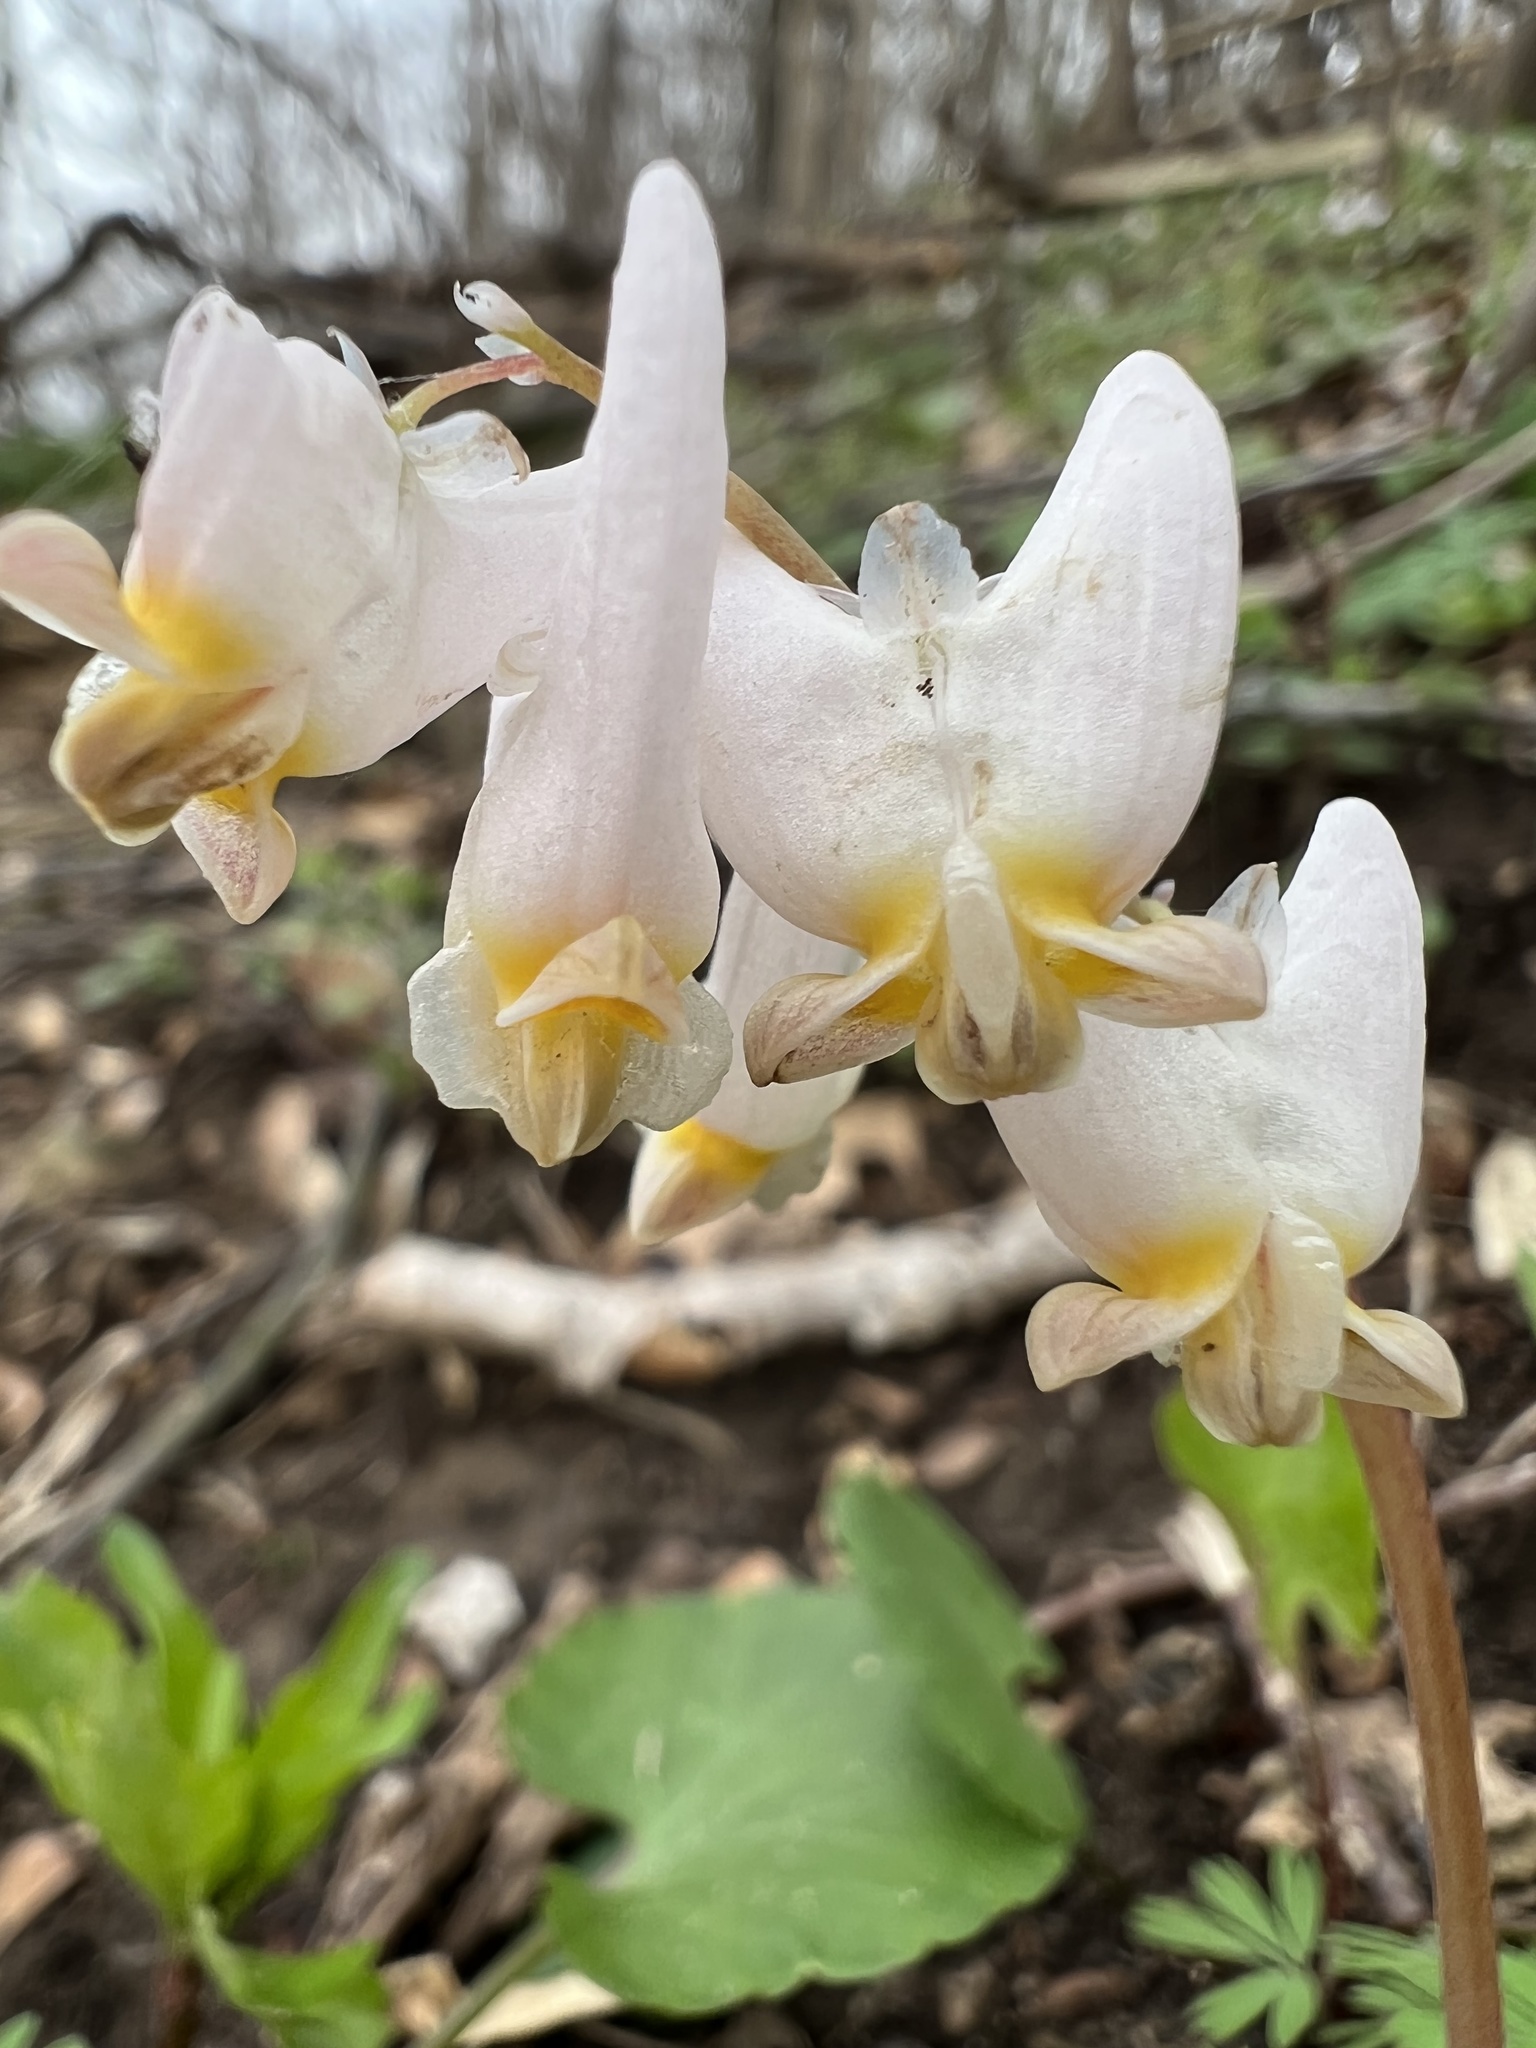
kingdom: Plantae
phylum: Tracheophyta
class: Magnoliopsida
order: Ranunculales
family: Papaveraceae
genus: Dicentra
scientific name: Dicentra cucullaria
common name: Dutchman's breeches
